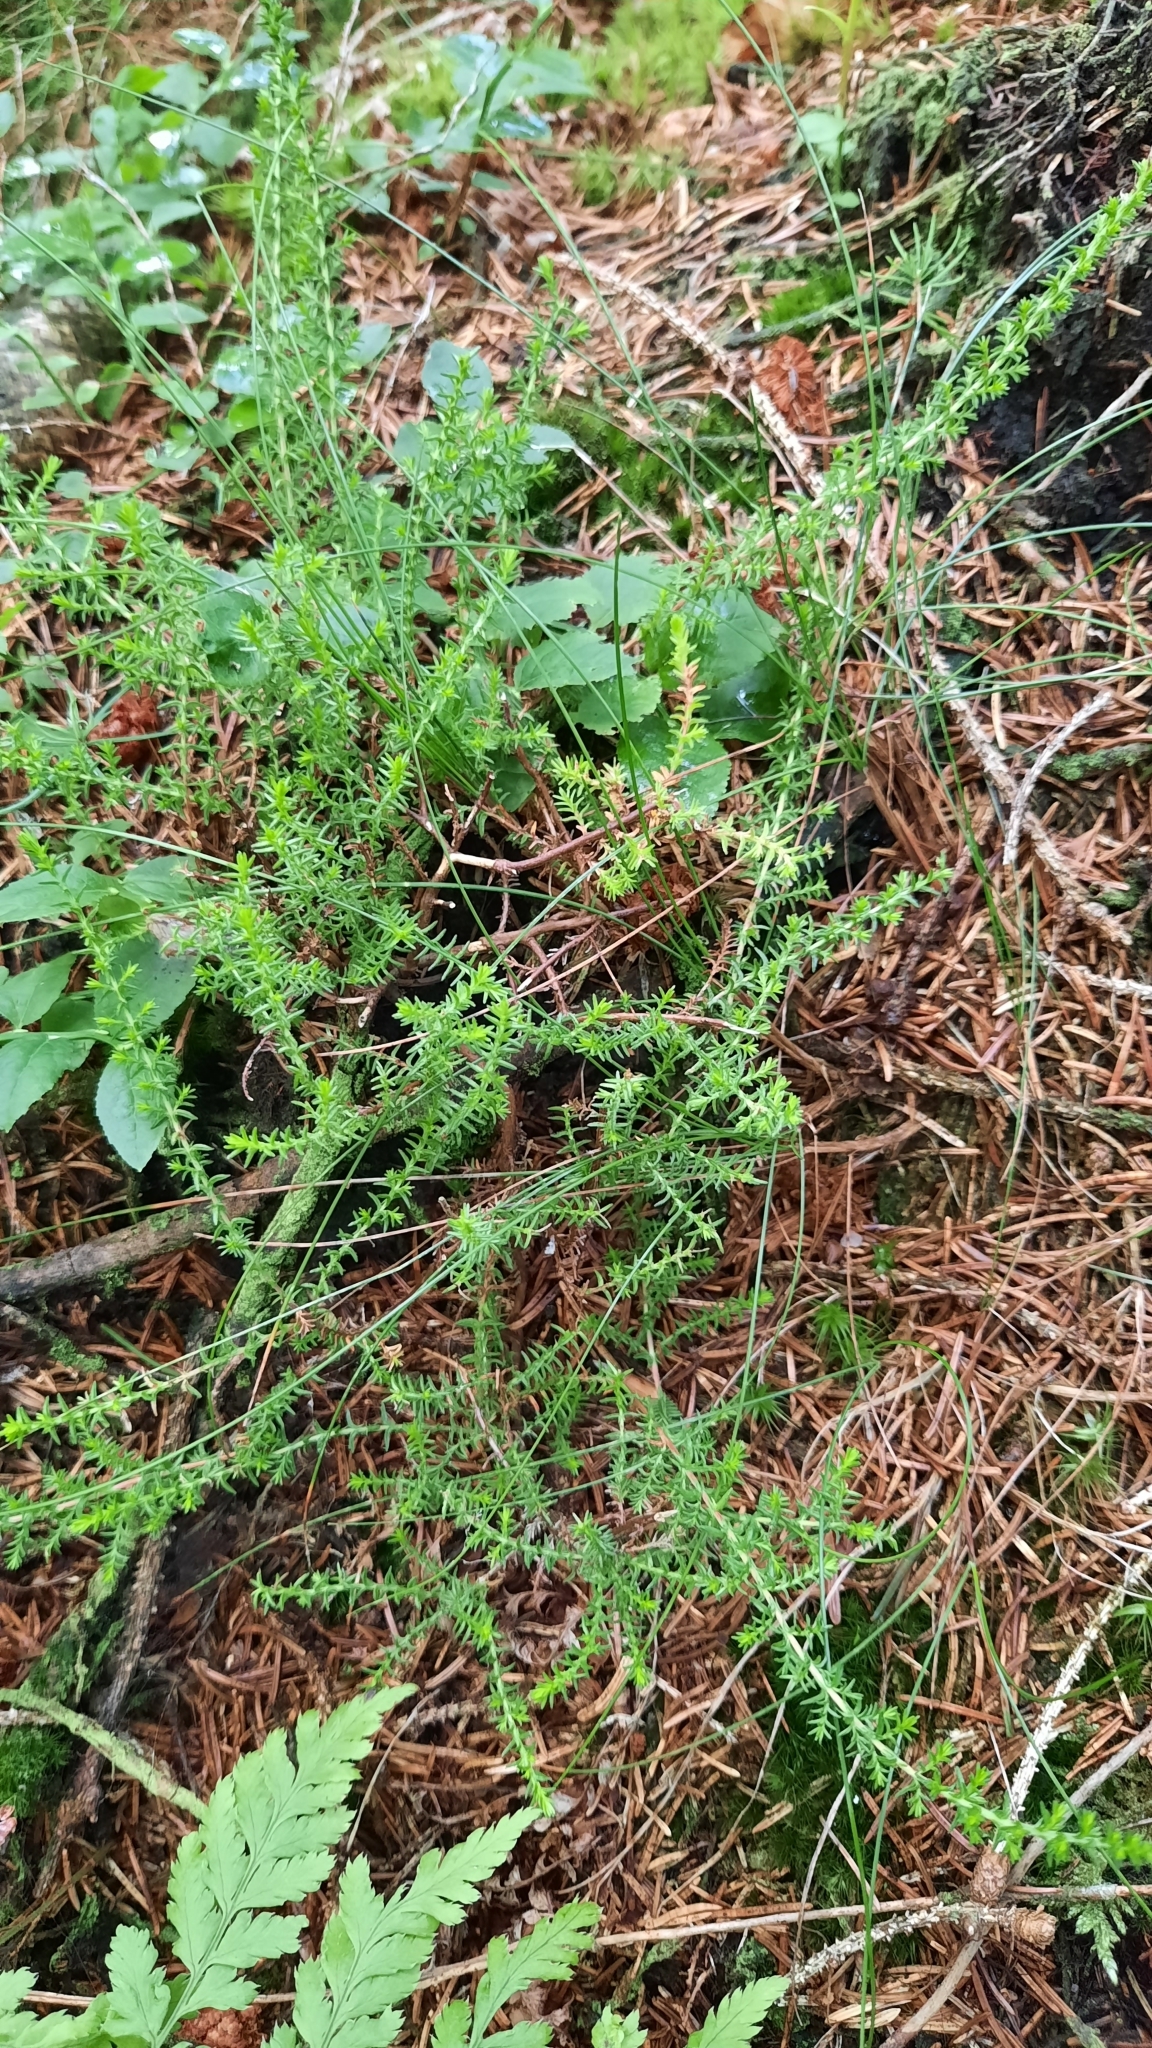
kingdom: Plantae
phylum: Tracheophyta
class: Magnoliopsida
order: Ericales
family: Ericaceae
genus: Calluna
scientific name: Calluna vulgaris
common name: Heather
